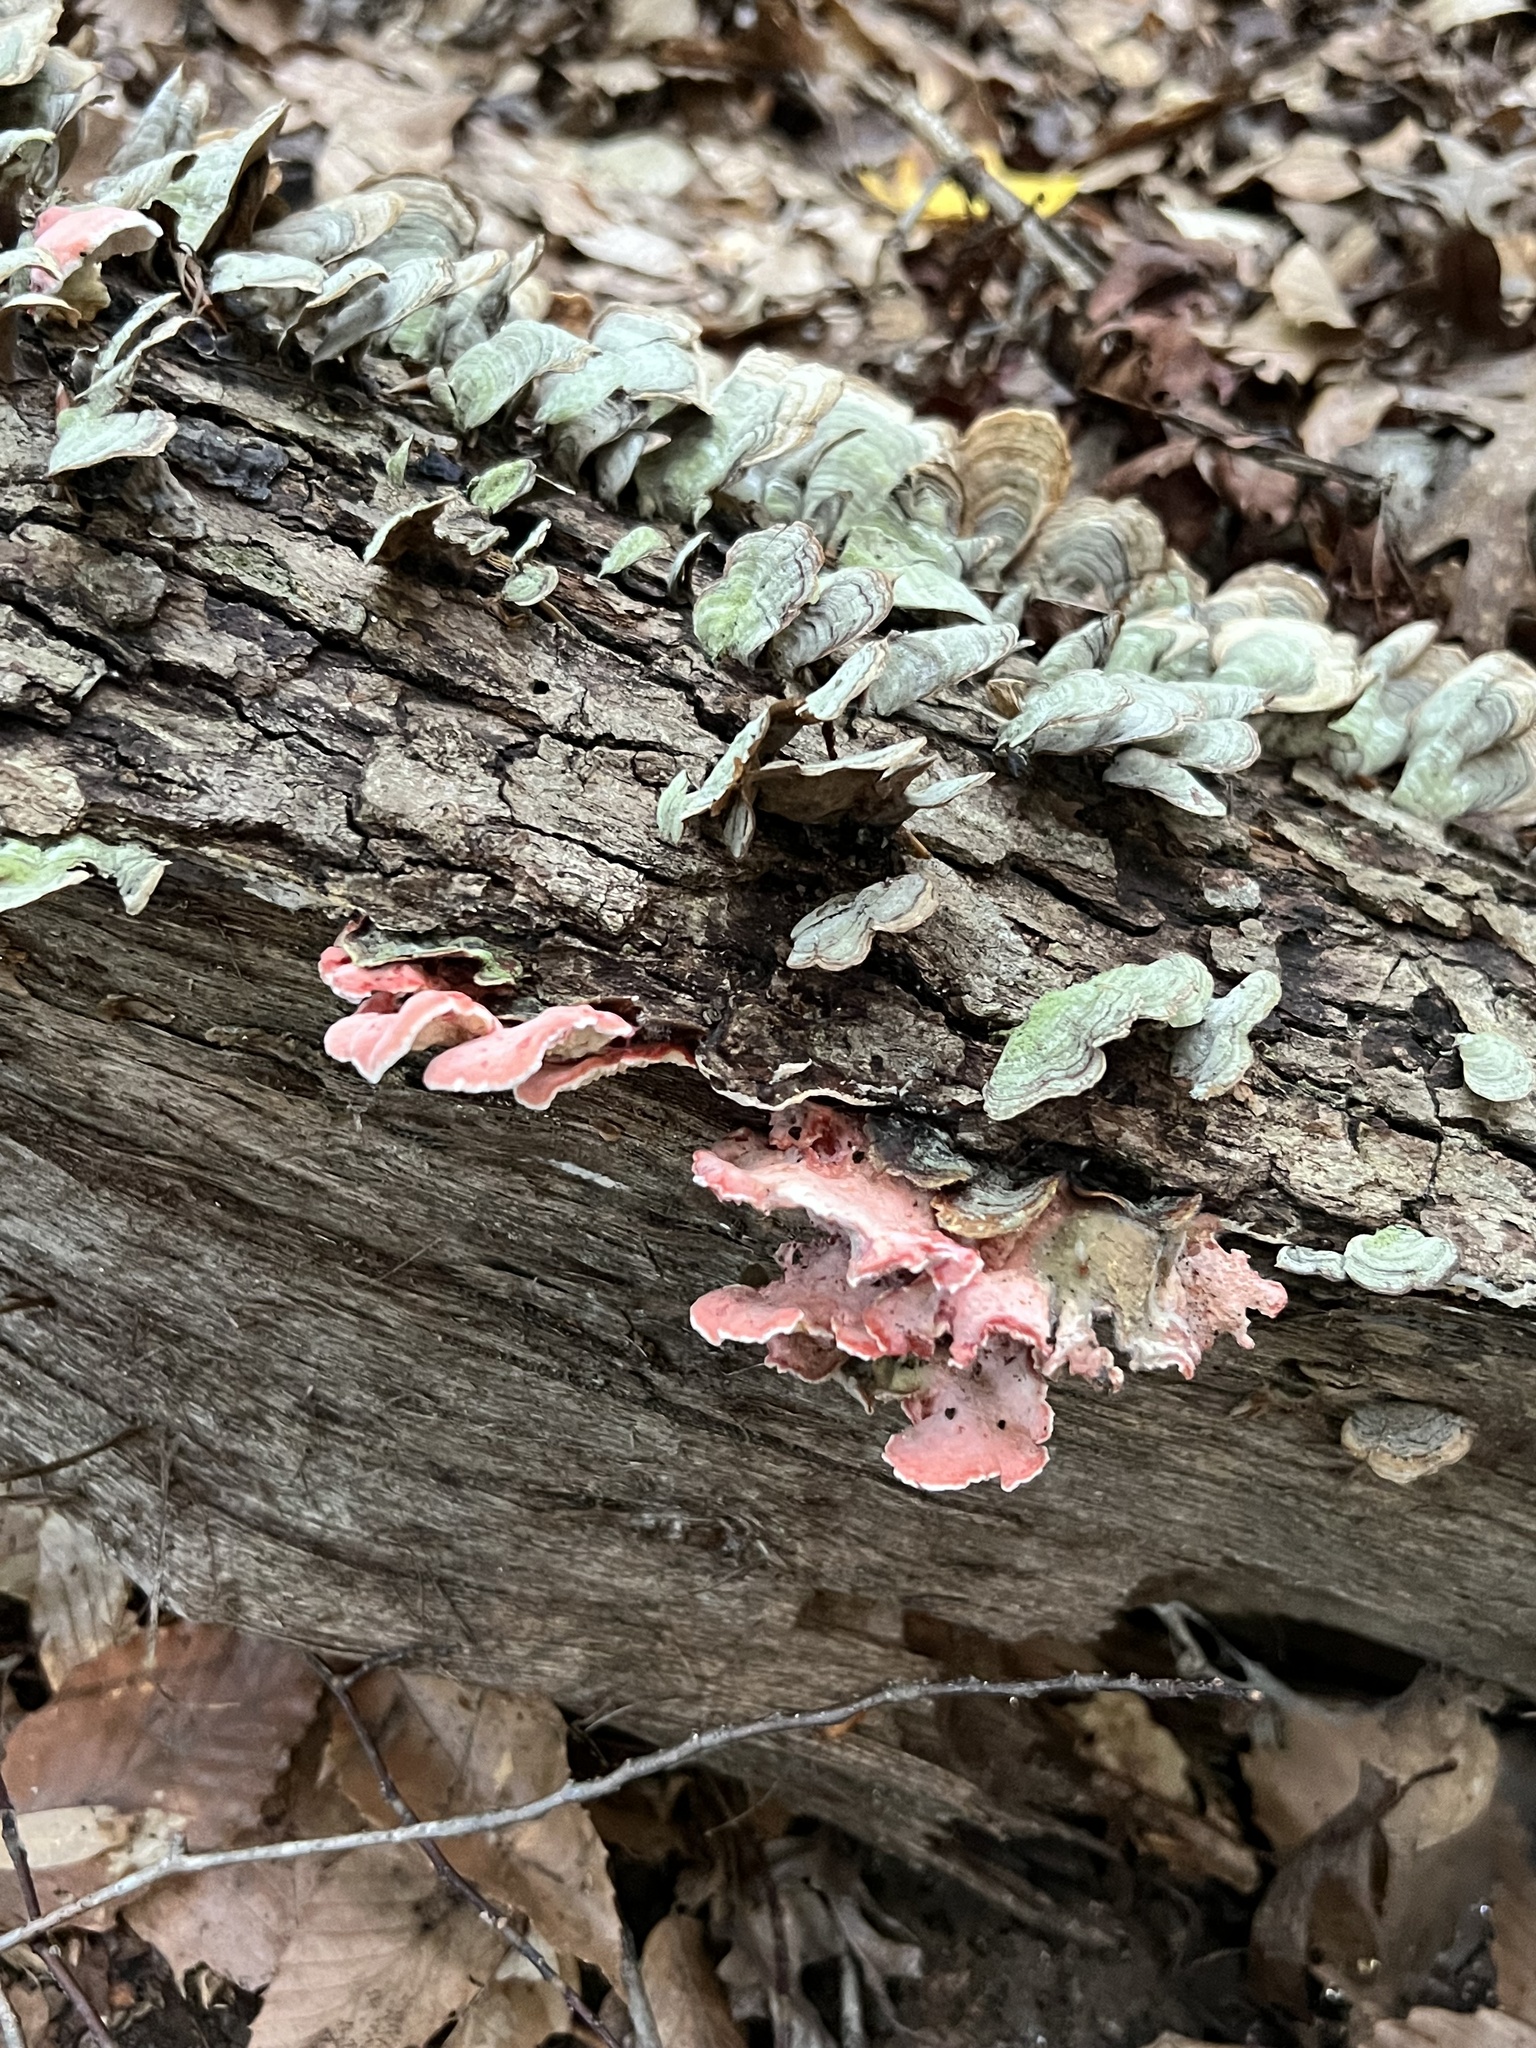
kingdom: Fungi
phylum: Basidiomycota
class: Agaricomycetes
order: Polyporales
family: Irpicaceae
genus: Byssomerulius
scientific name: Byssomerulius incarnatus
